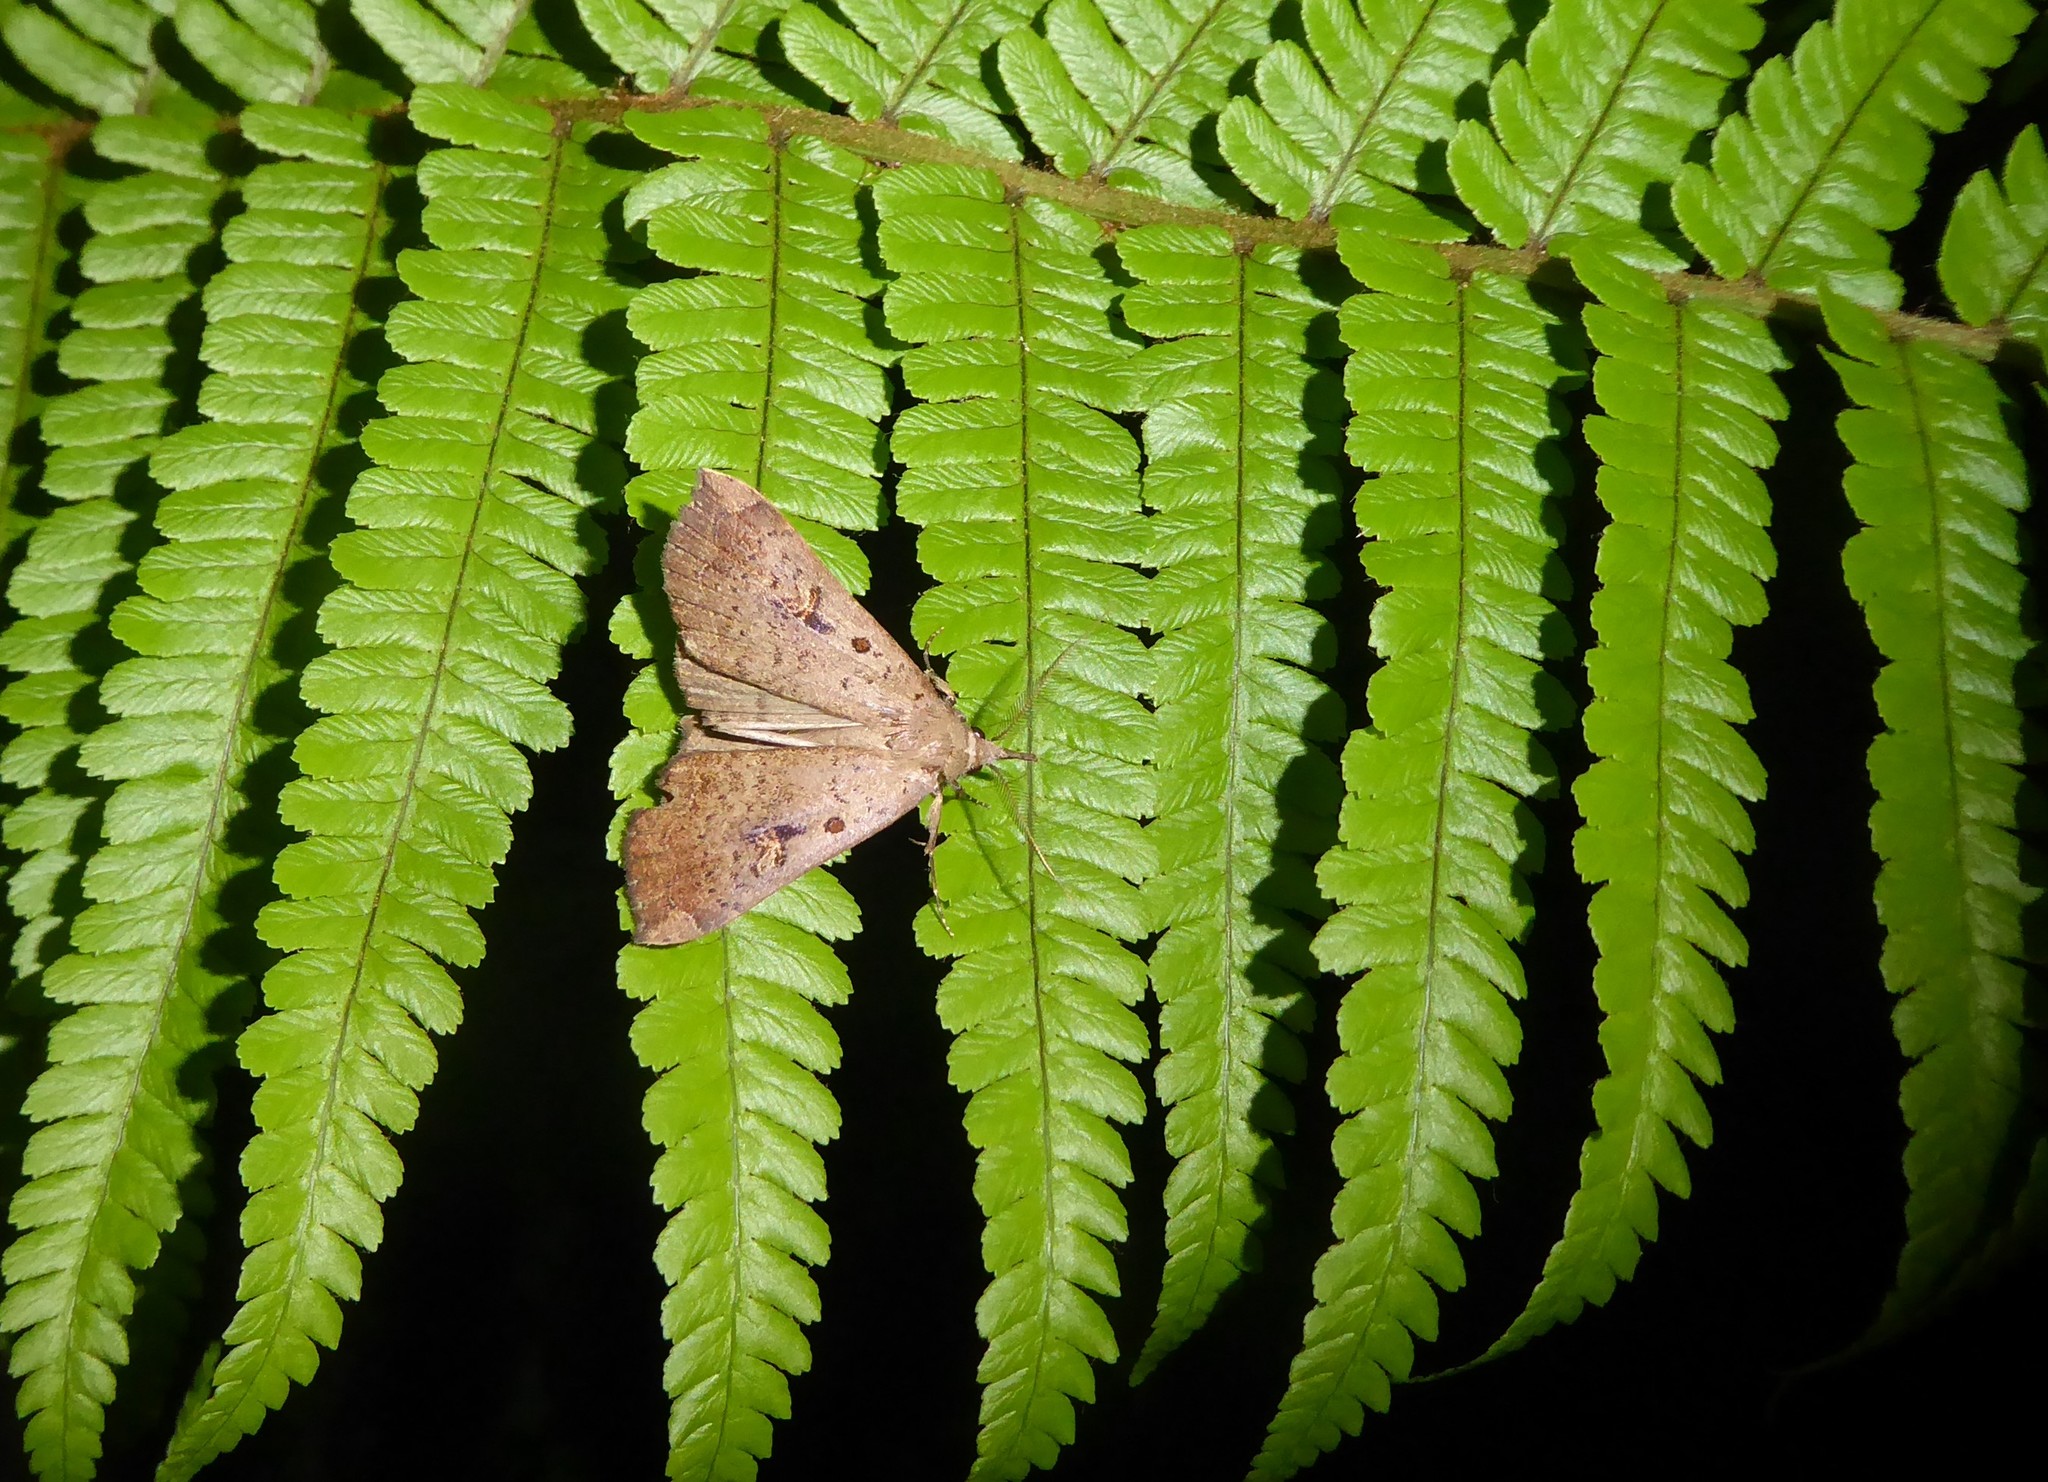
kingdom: Animalia
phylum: Arthropoda
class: Insecta
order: Lepidoptera
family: Erebidae
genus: Rhapsa
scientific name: Rhapsa scotosialis
